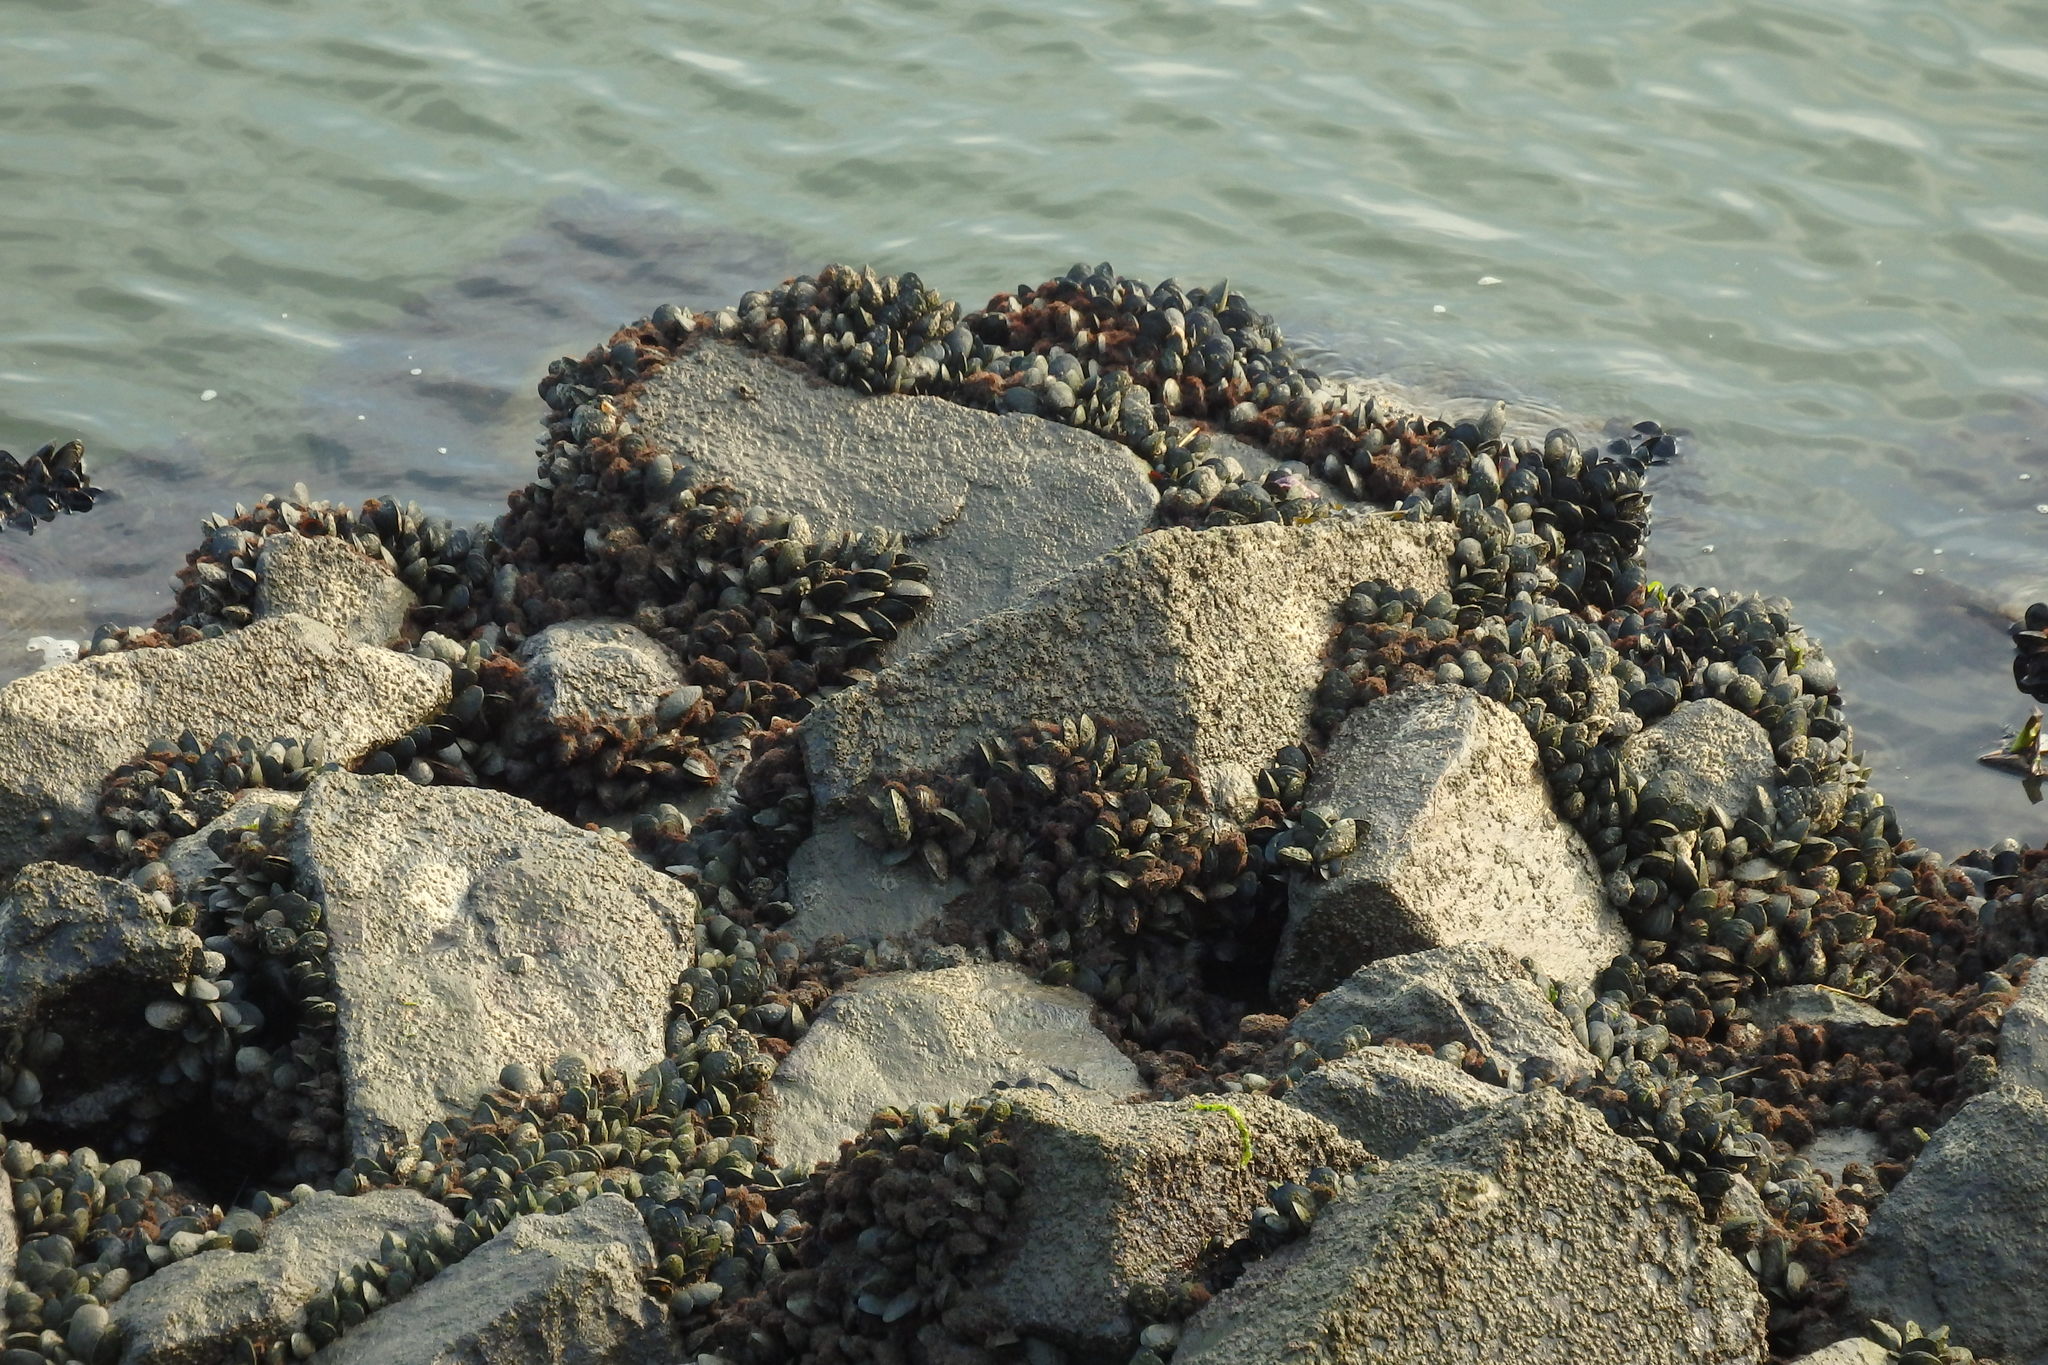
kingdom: Animalia
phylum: Mollusca
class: Bivalvia
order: Mytilida
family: Mytilidae
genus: Mytilus
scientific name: Mytilus galloprovincialis
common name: Mediterranean mussel
